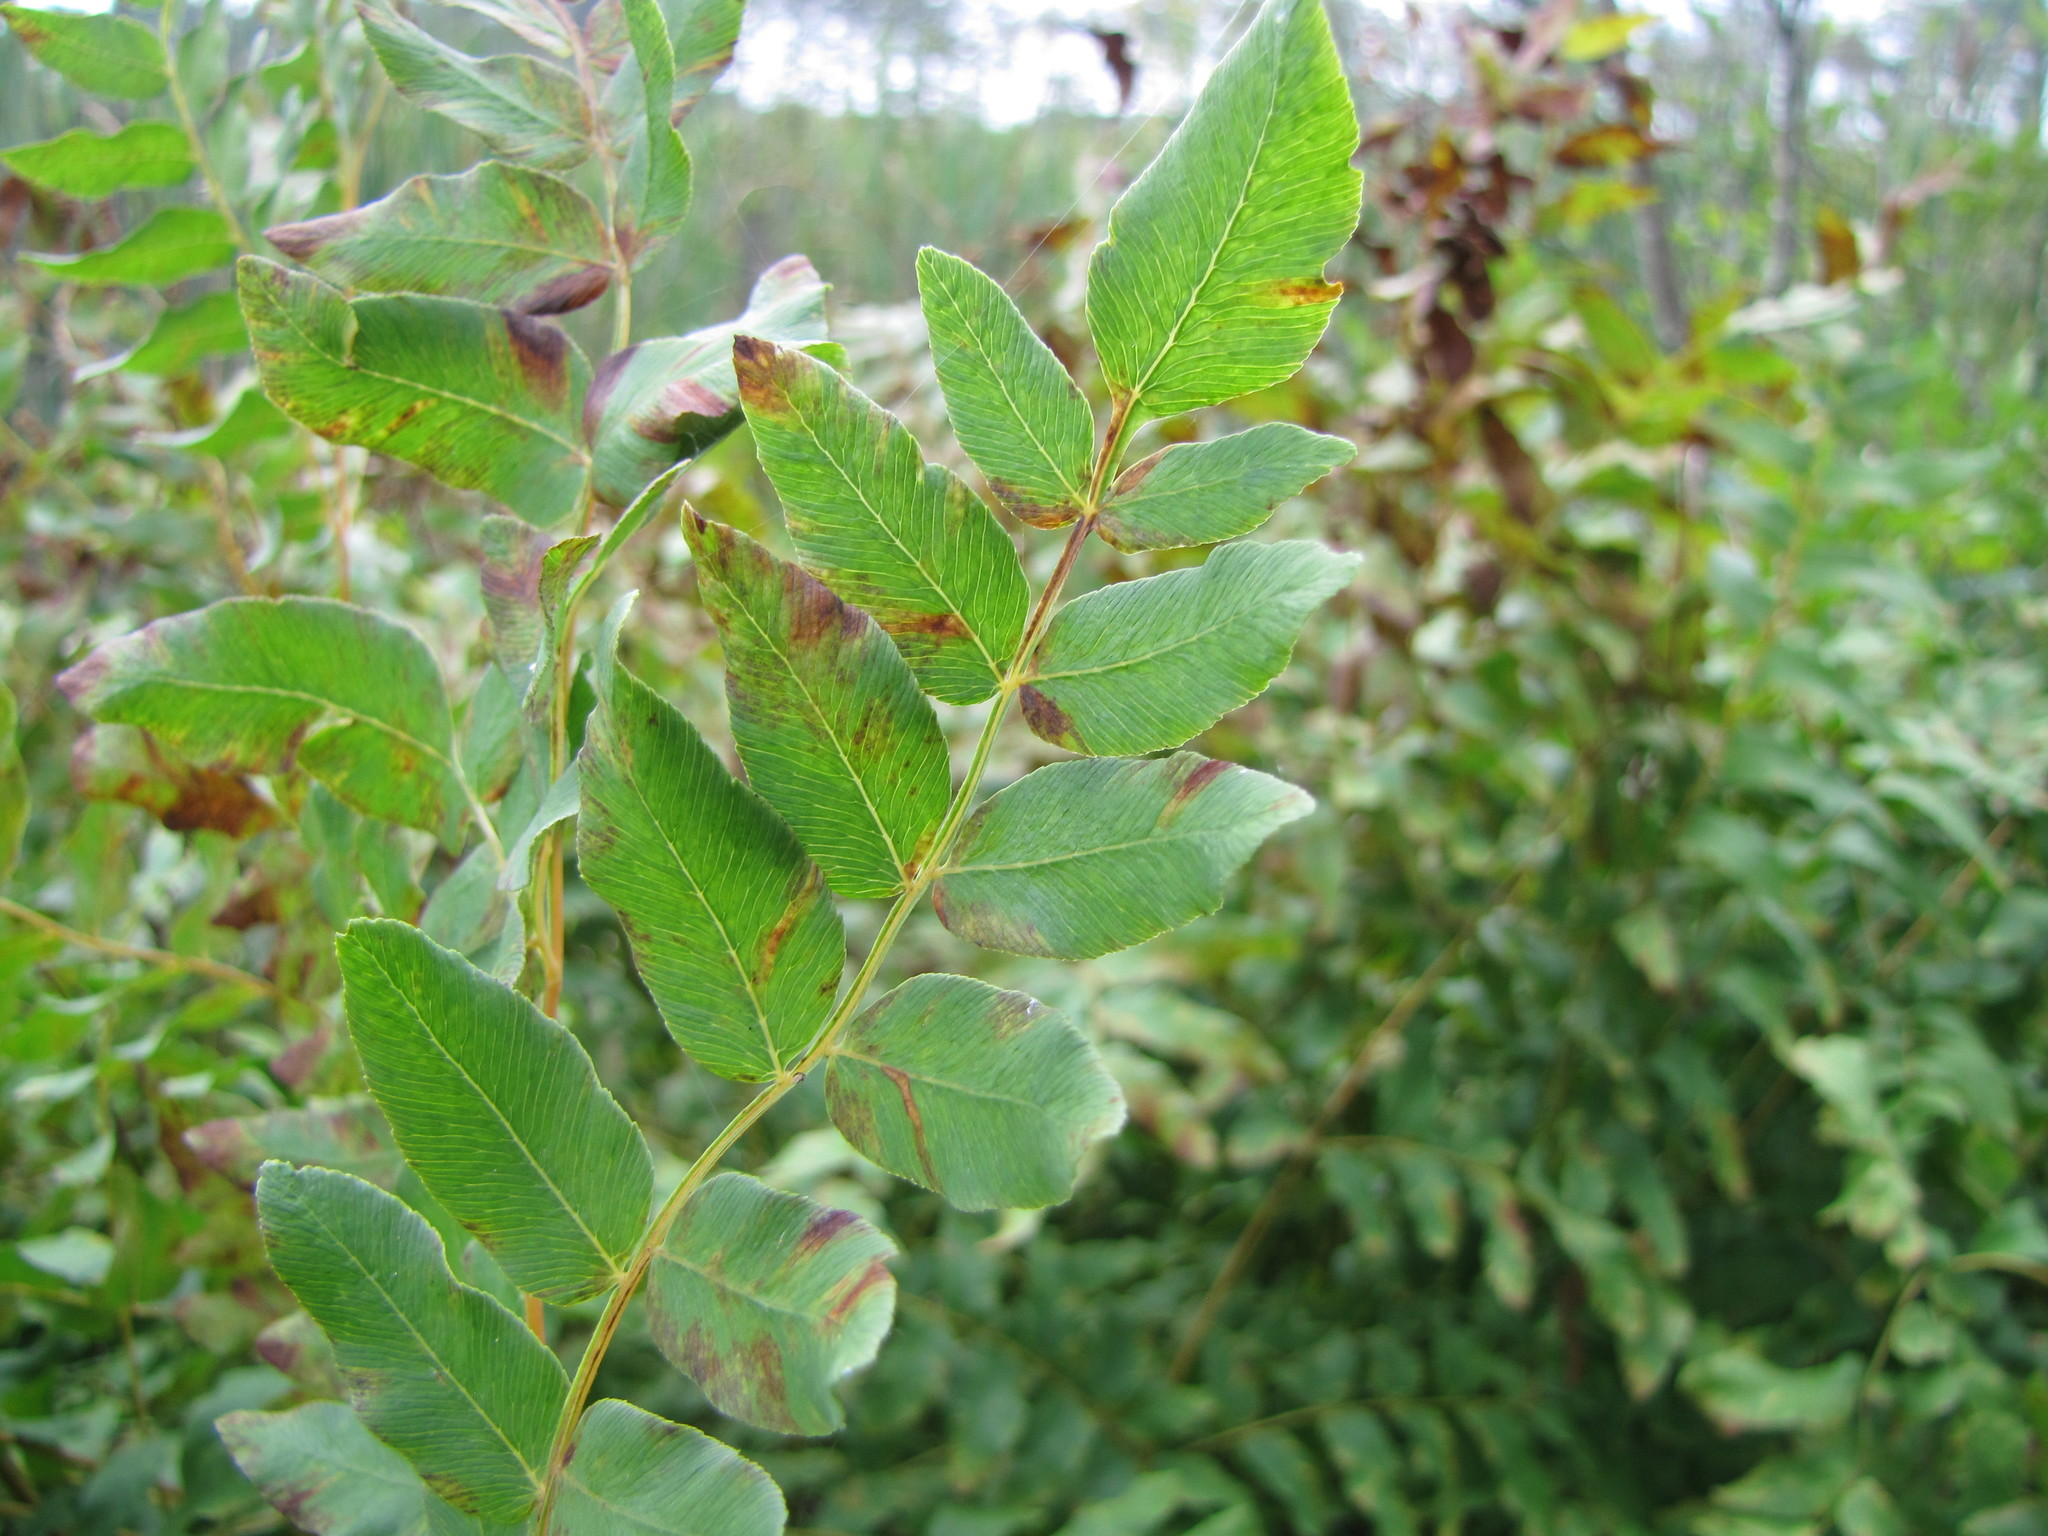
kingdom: Plantae
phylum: Tracheophyta
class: Polypodiopsida
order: Osmundales
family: Osmundaceae
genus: Osmunda
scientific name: Osmunda spectabilis
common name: American royal fern
